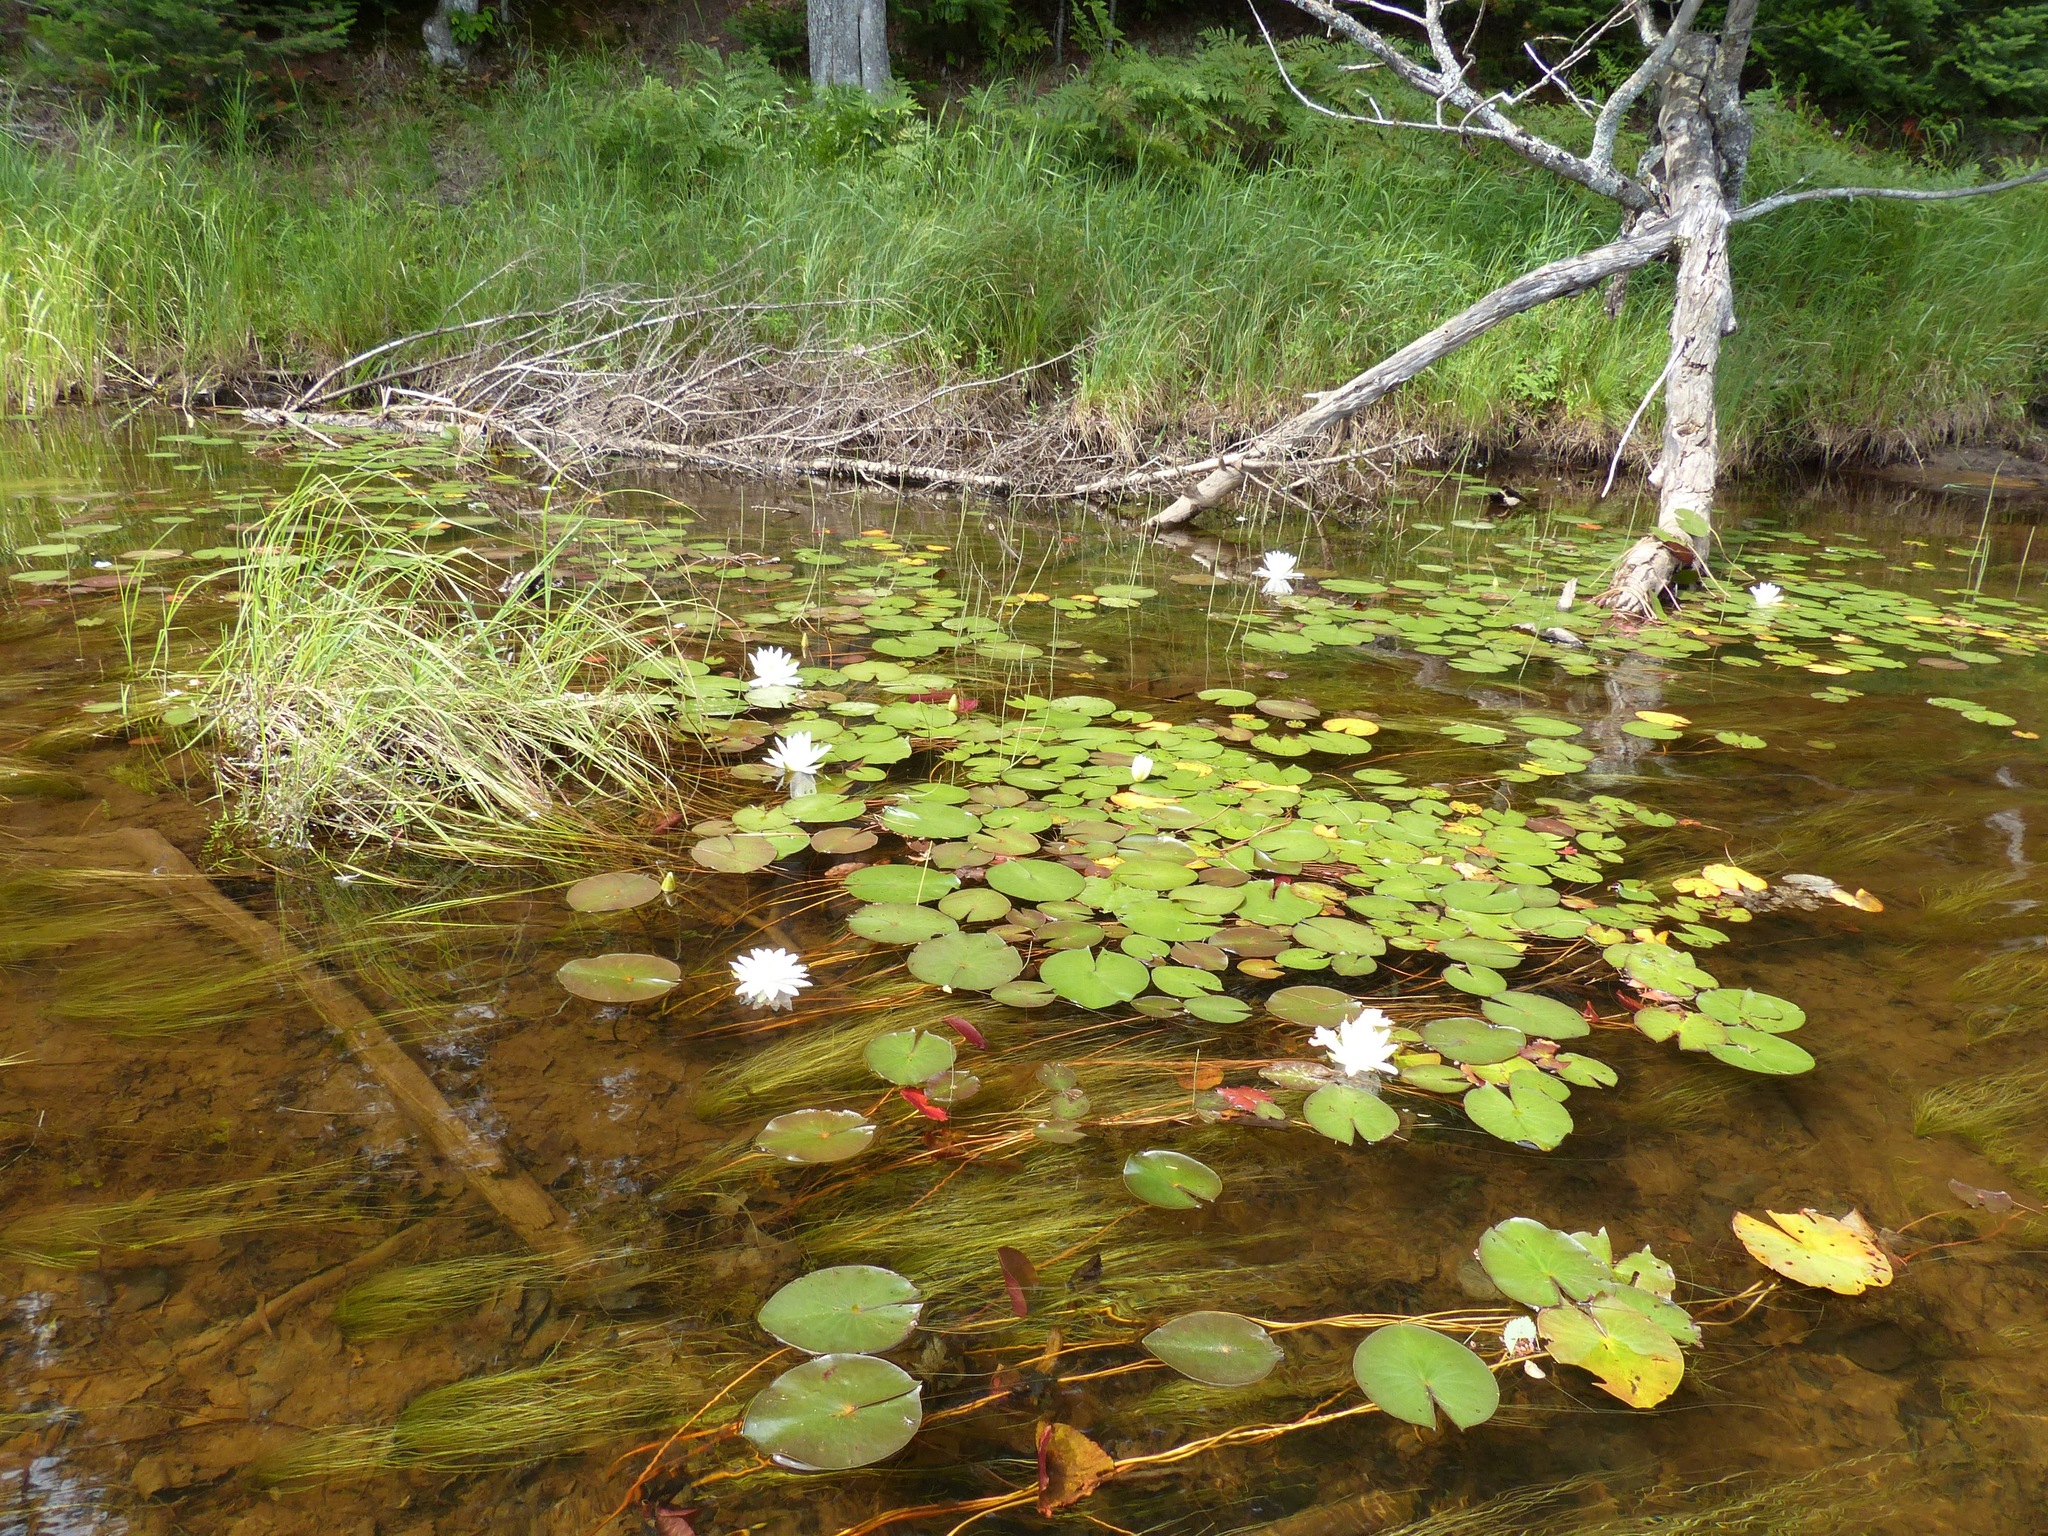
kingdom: Plantae
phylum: Tracheophyta
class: Magnoliopsida
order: Nymphaeales
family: Nymphaeaceae
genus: Nymphaea
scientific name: Nymphaea odorata
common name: Fragrant water-lily
